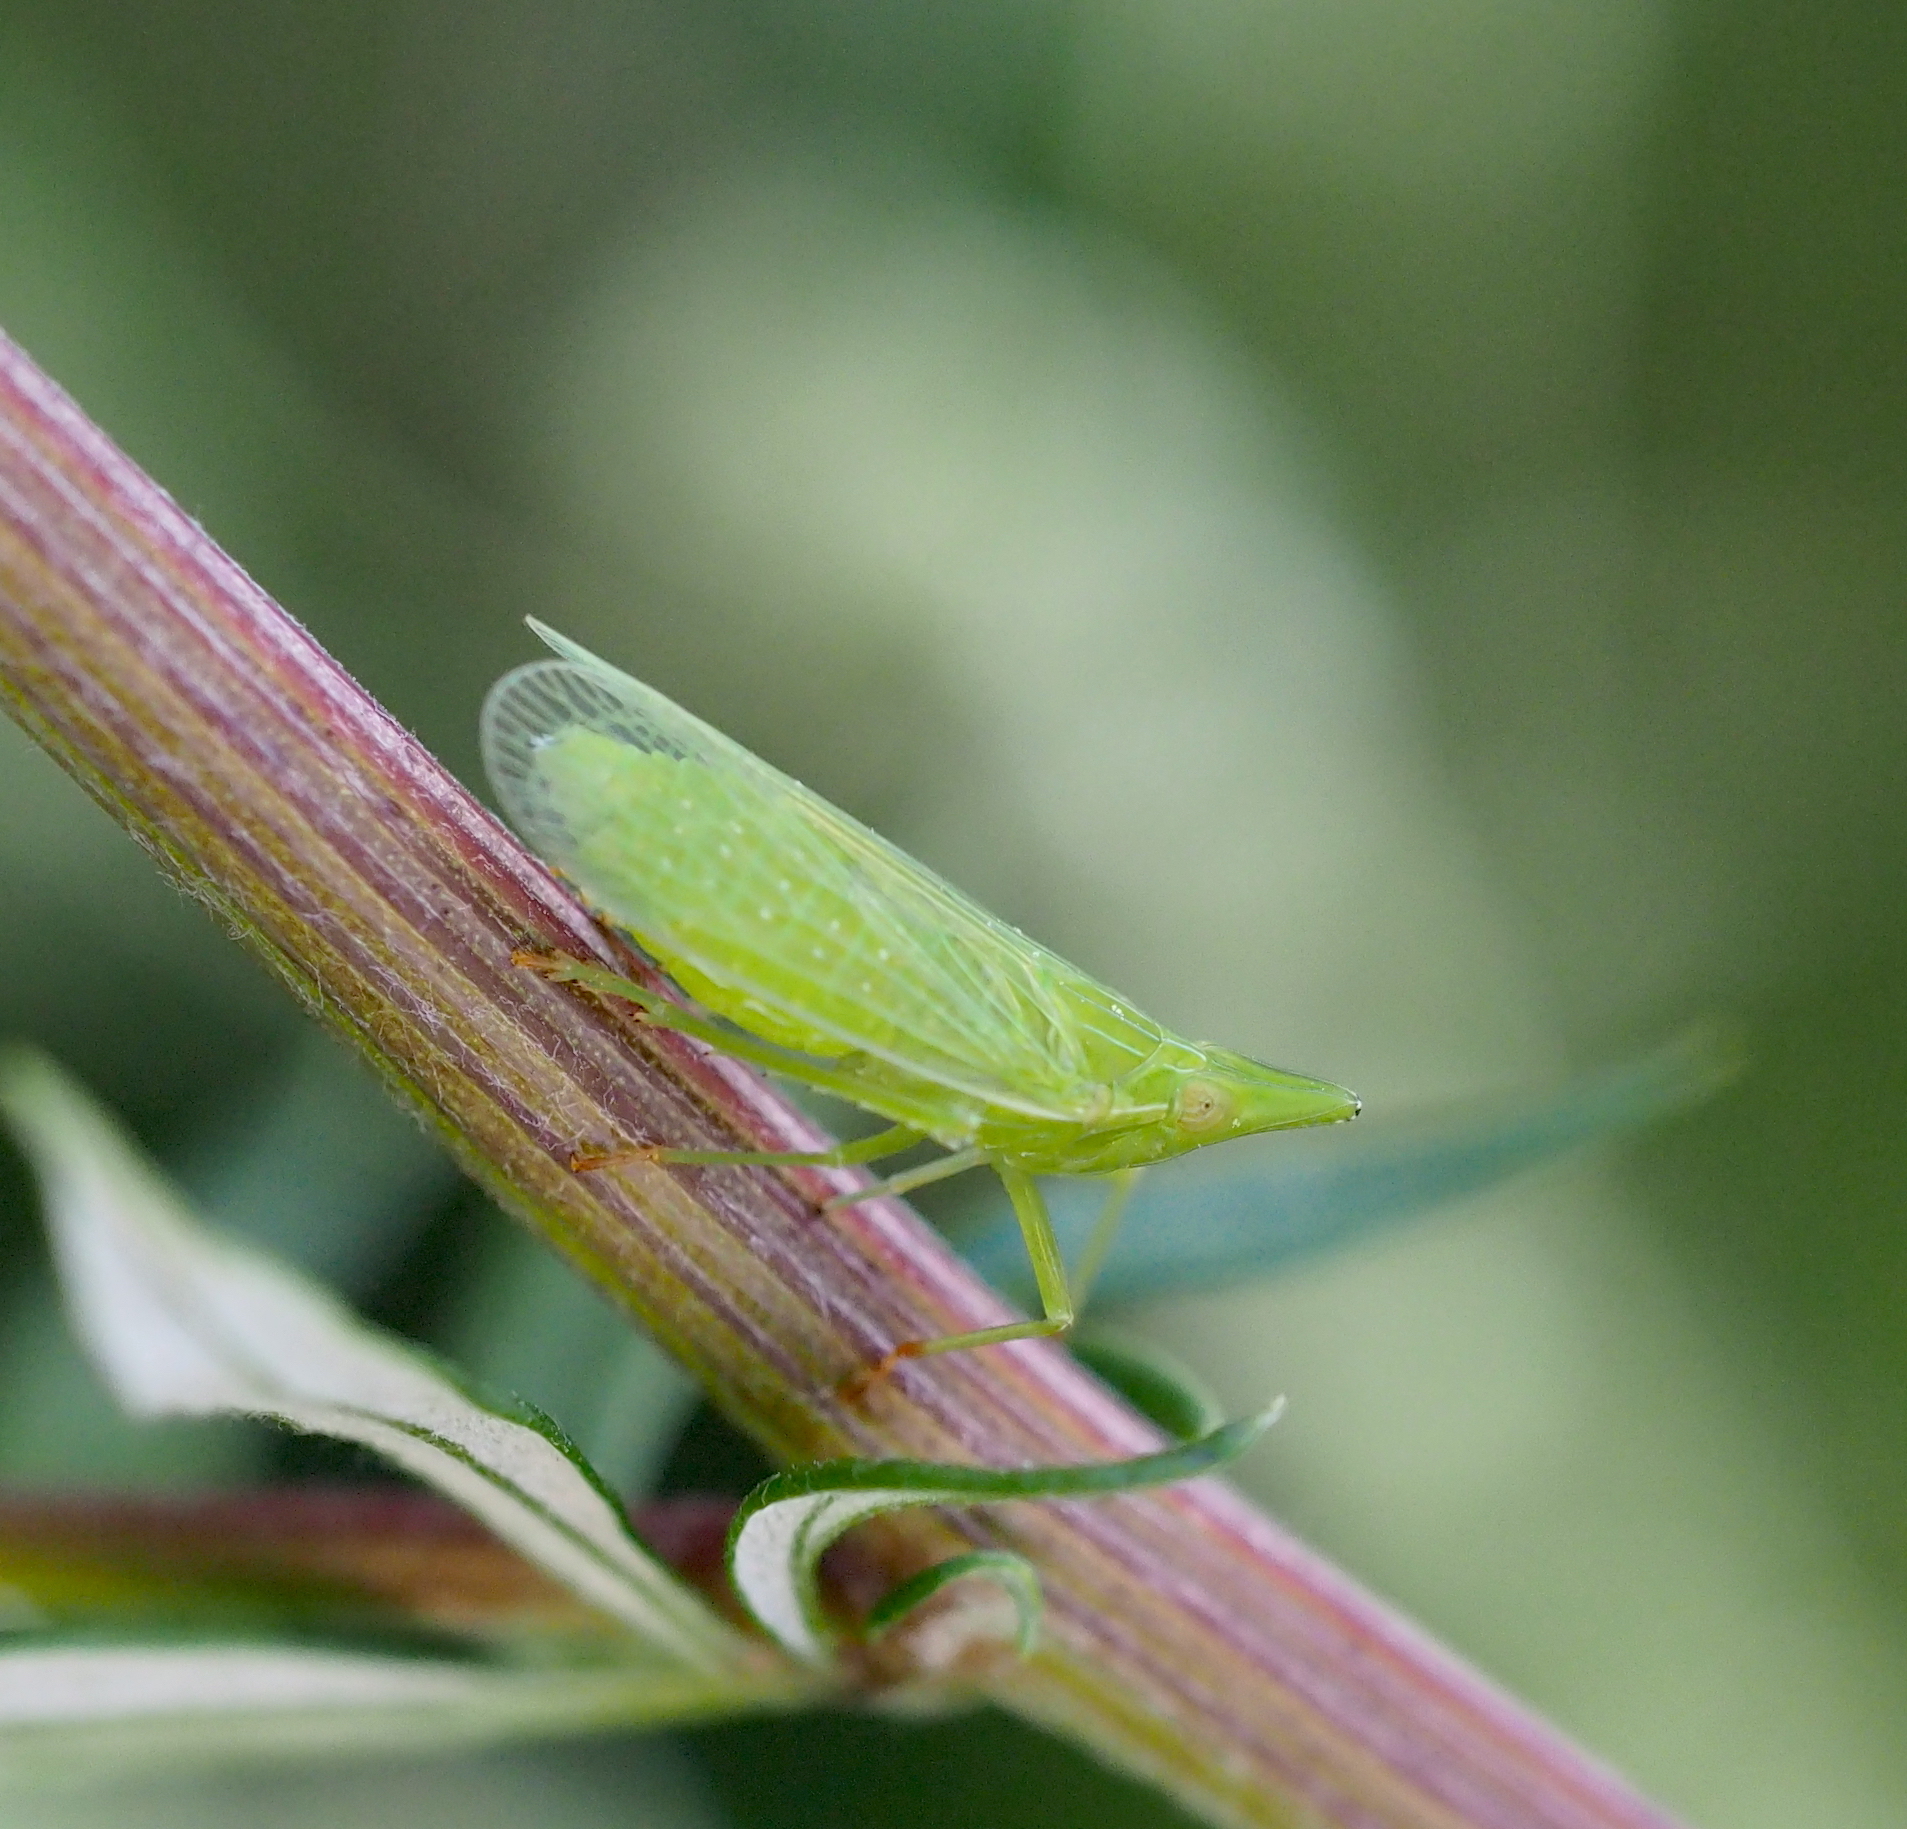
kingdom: Animalia
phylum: Arthropoda
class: Insecta
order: Hemiptera
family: Dictyopharidae
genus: Dictyophara
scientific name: Dictyophara europaea
